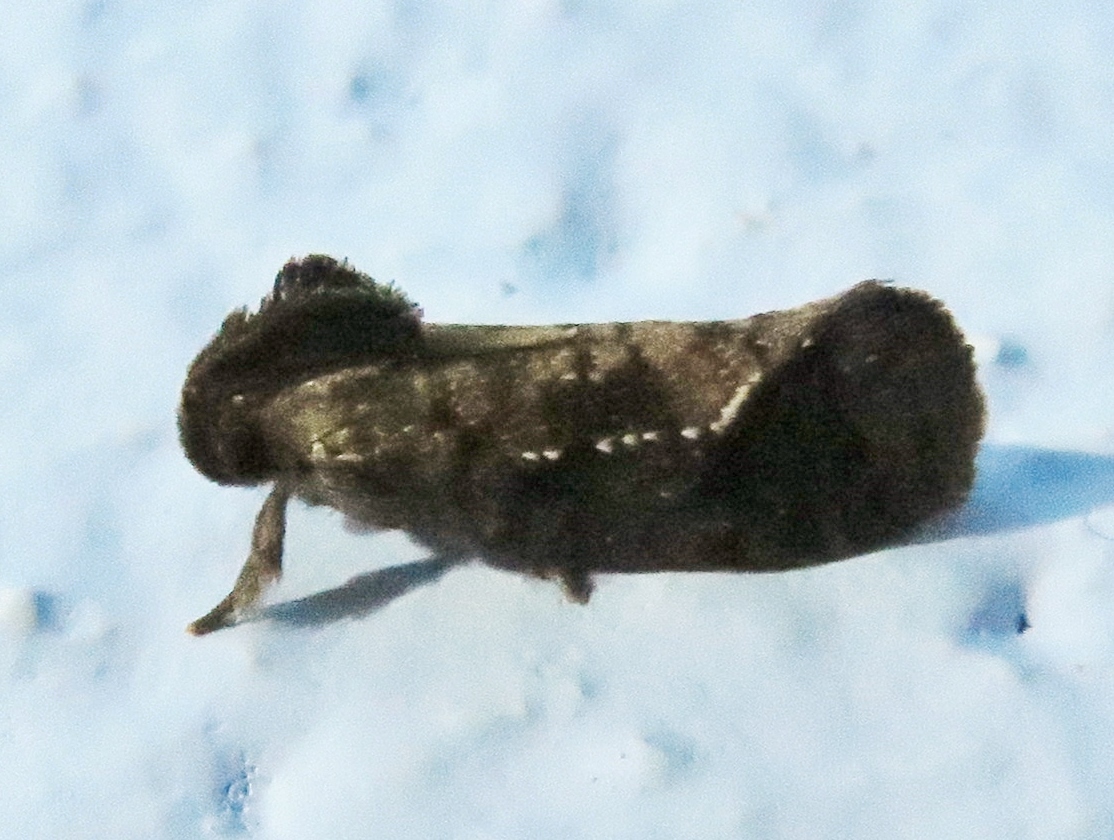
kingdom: Animalia
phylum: Arthropoda
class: Insecta
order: Lepidoptera
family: Tineidae
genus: Acrolophus
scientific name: Acrolophus texanella
